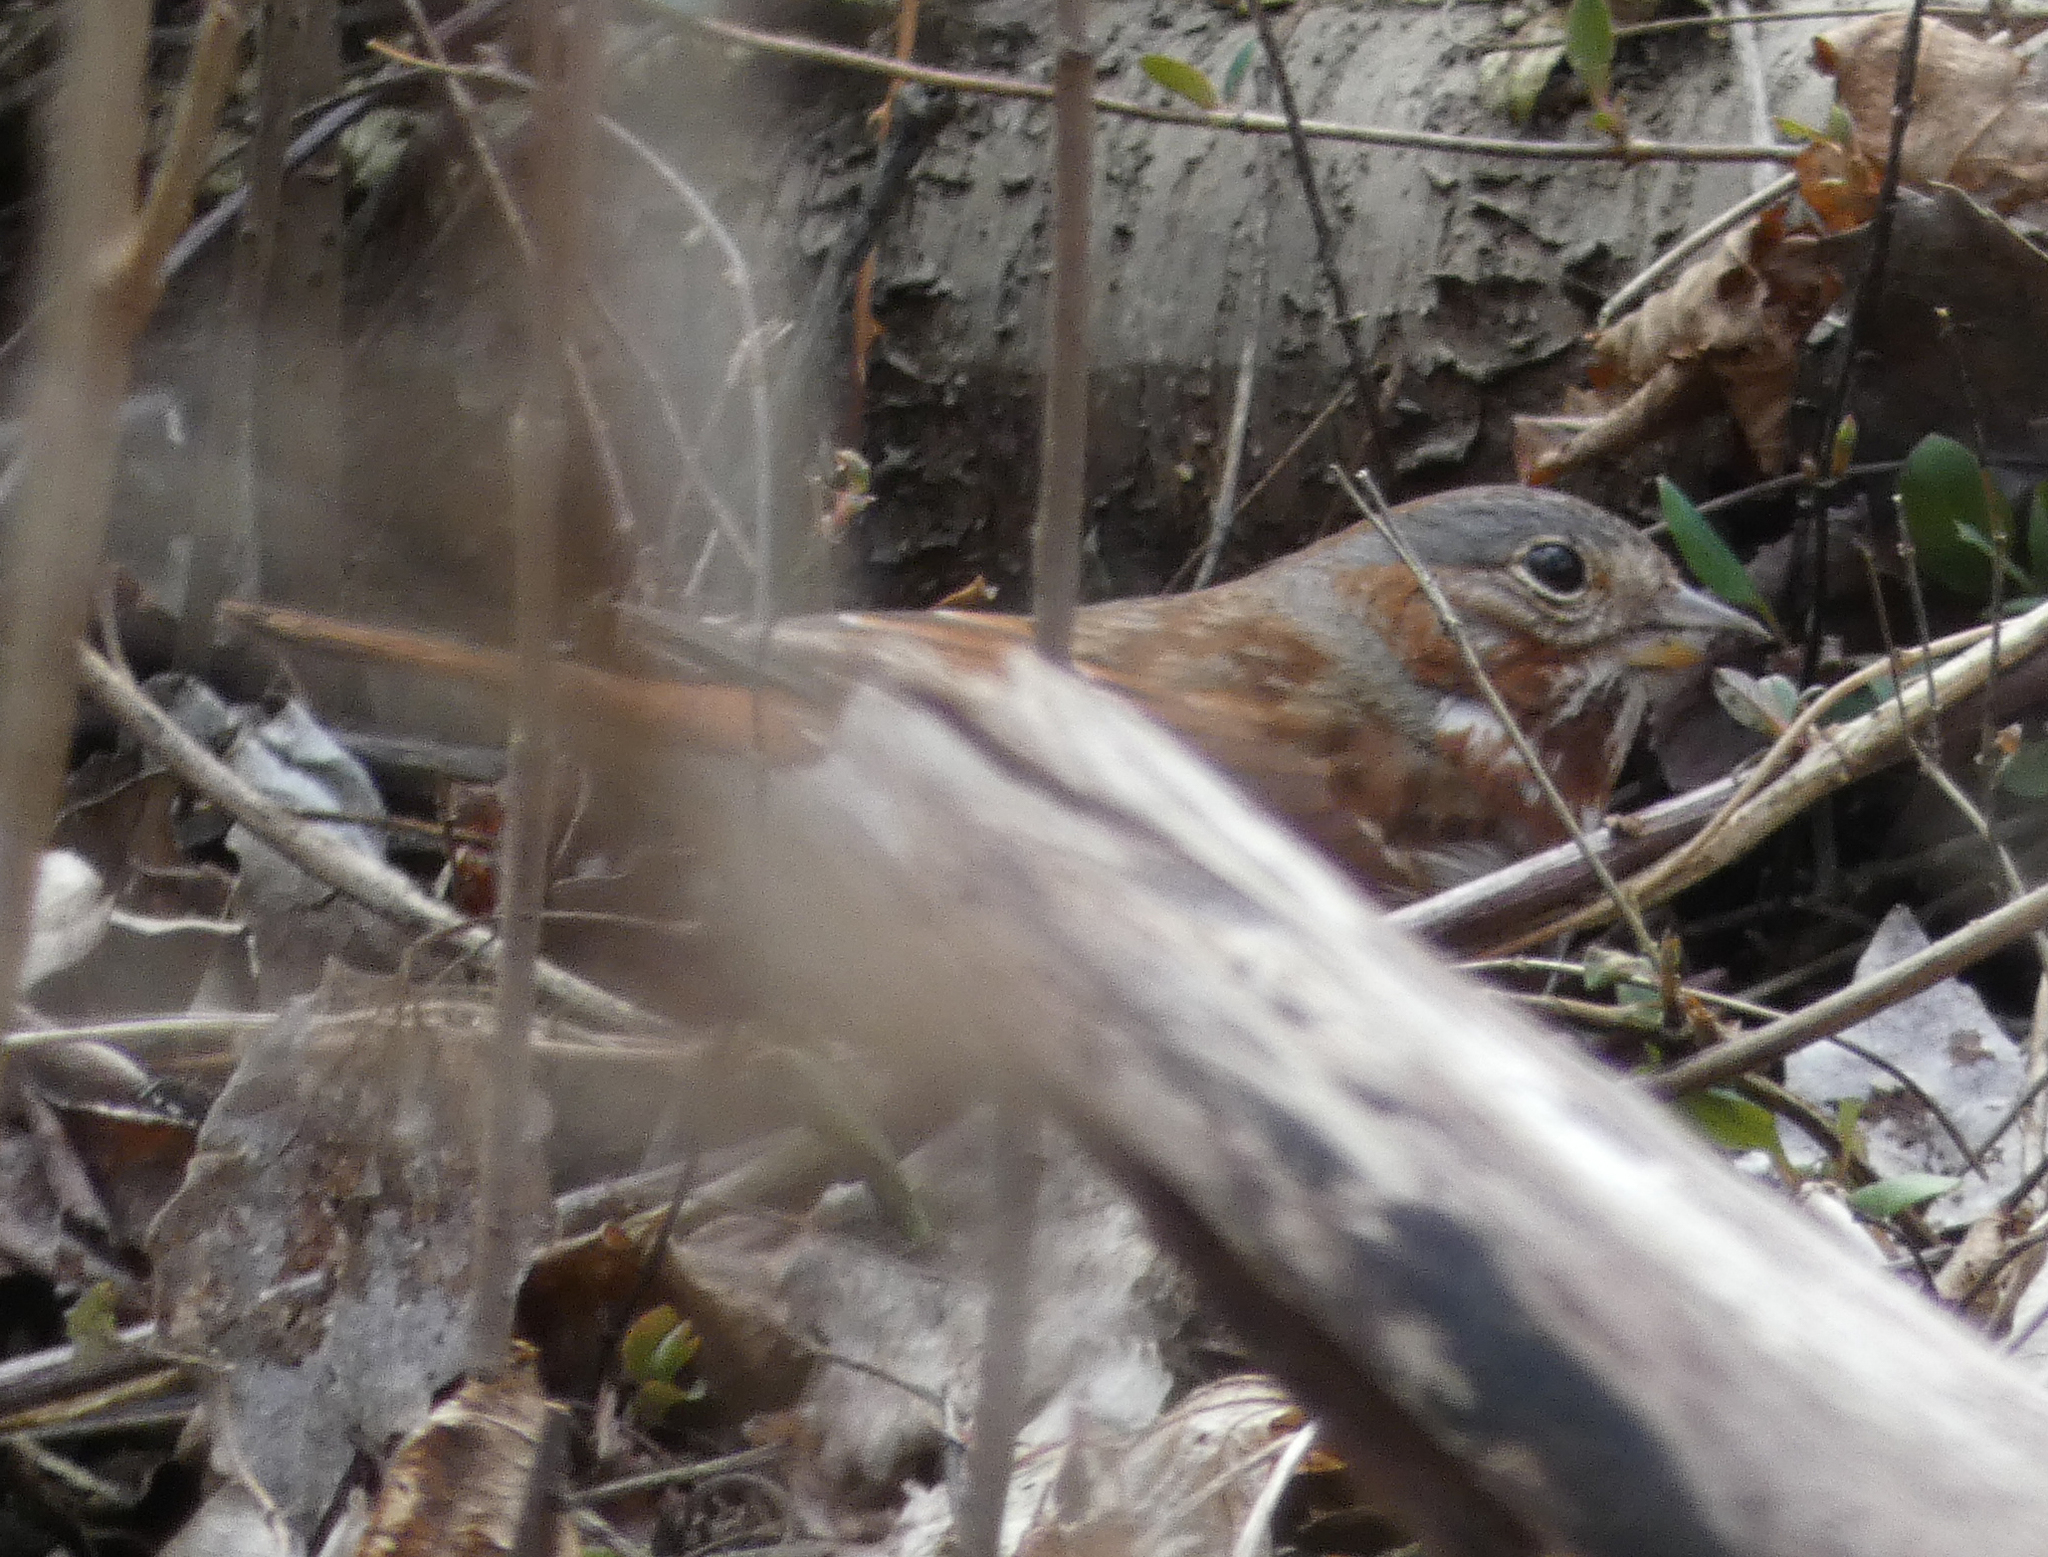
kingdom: Animalia
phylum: Chordata
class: Aves
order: Passeriformes
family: Passerellidae
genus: Passerella
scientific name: Passerella iliaca
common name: Fox sparrow
